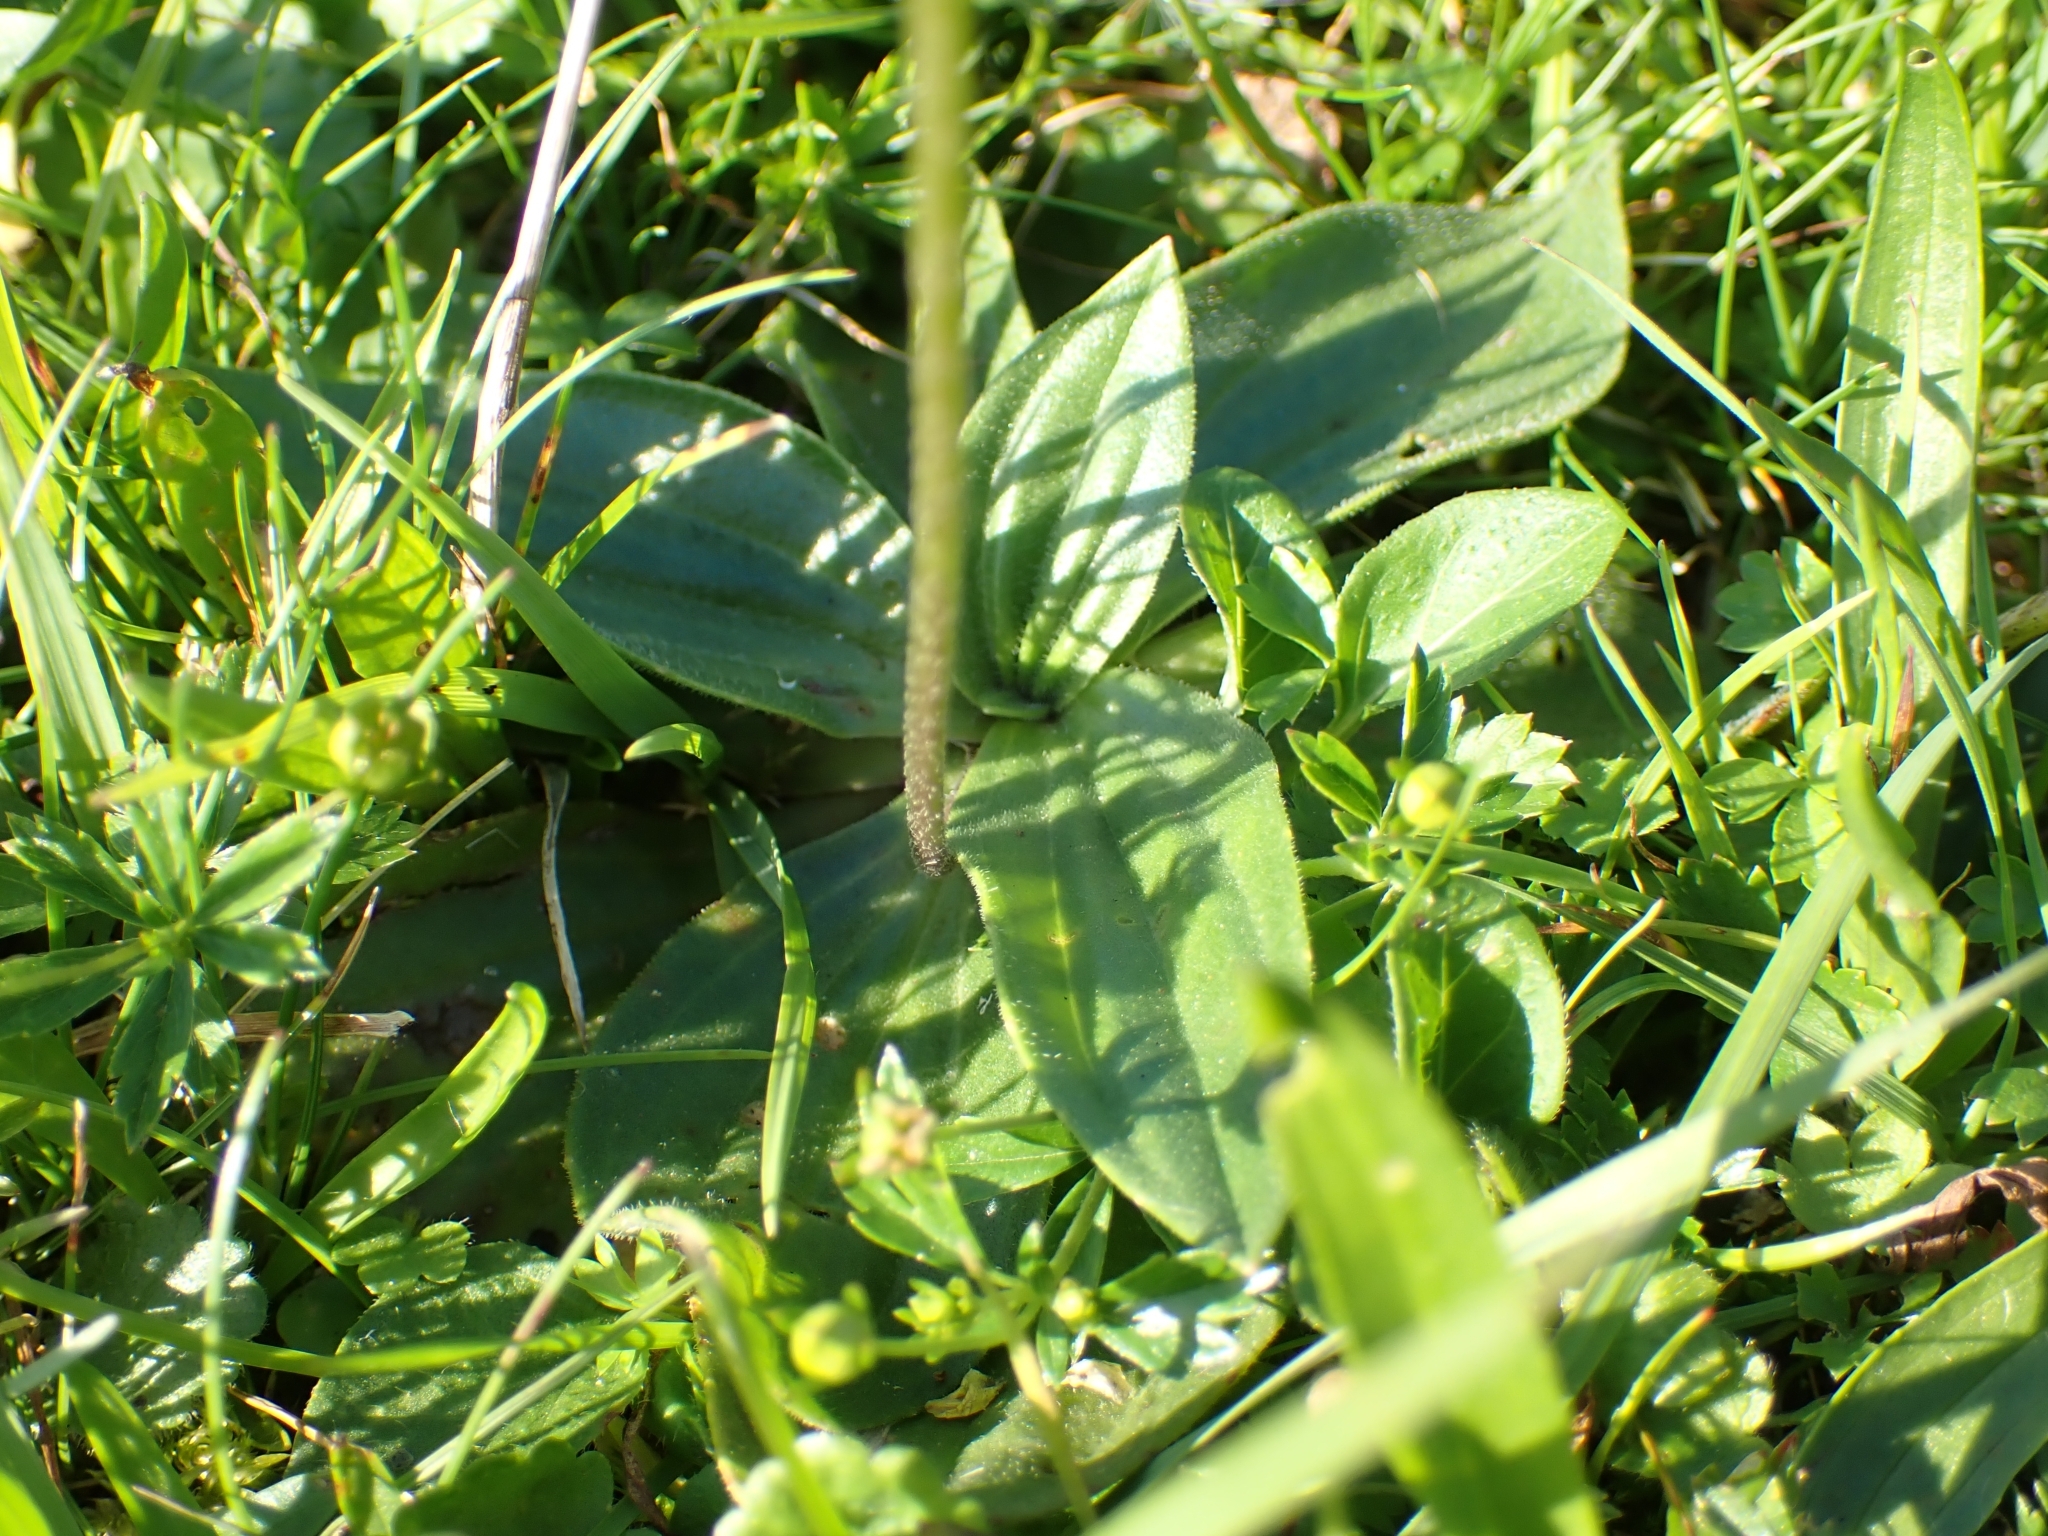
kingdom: Plantae
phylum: Tracheophyta
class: Magnoliopsida
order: Lamiales
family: Plantaginaceae
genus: Plantago
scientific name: Plantago media
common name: Hoary plantain
